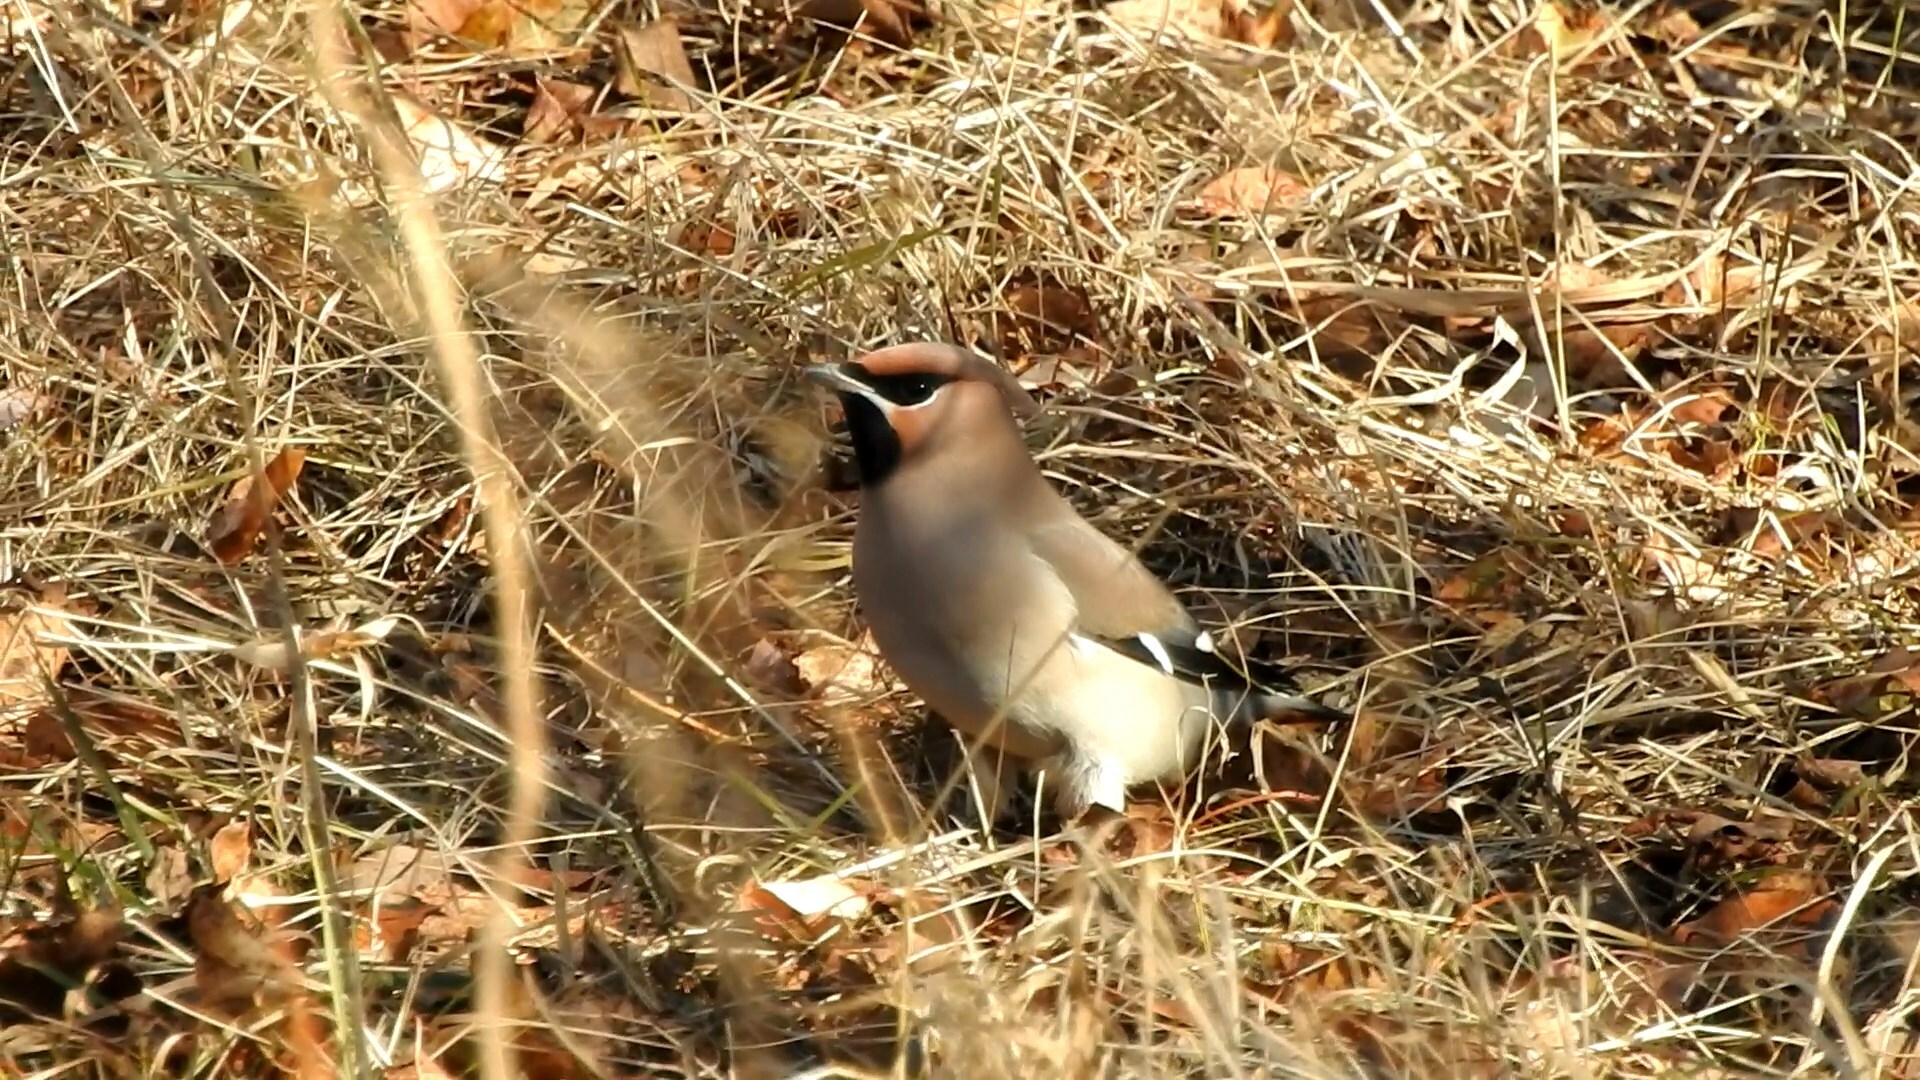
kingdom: Animalia
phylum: Chordata
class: Aves
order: Passeriformes
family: Bombycillidae
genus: Bombycilla
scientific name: Bombycilla garrulus
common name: Bohemian waxwing
